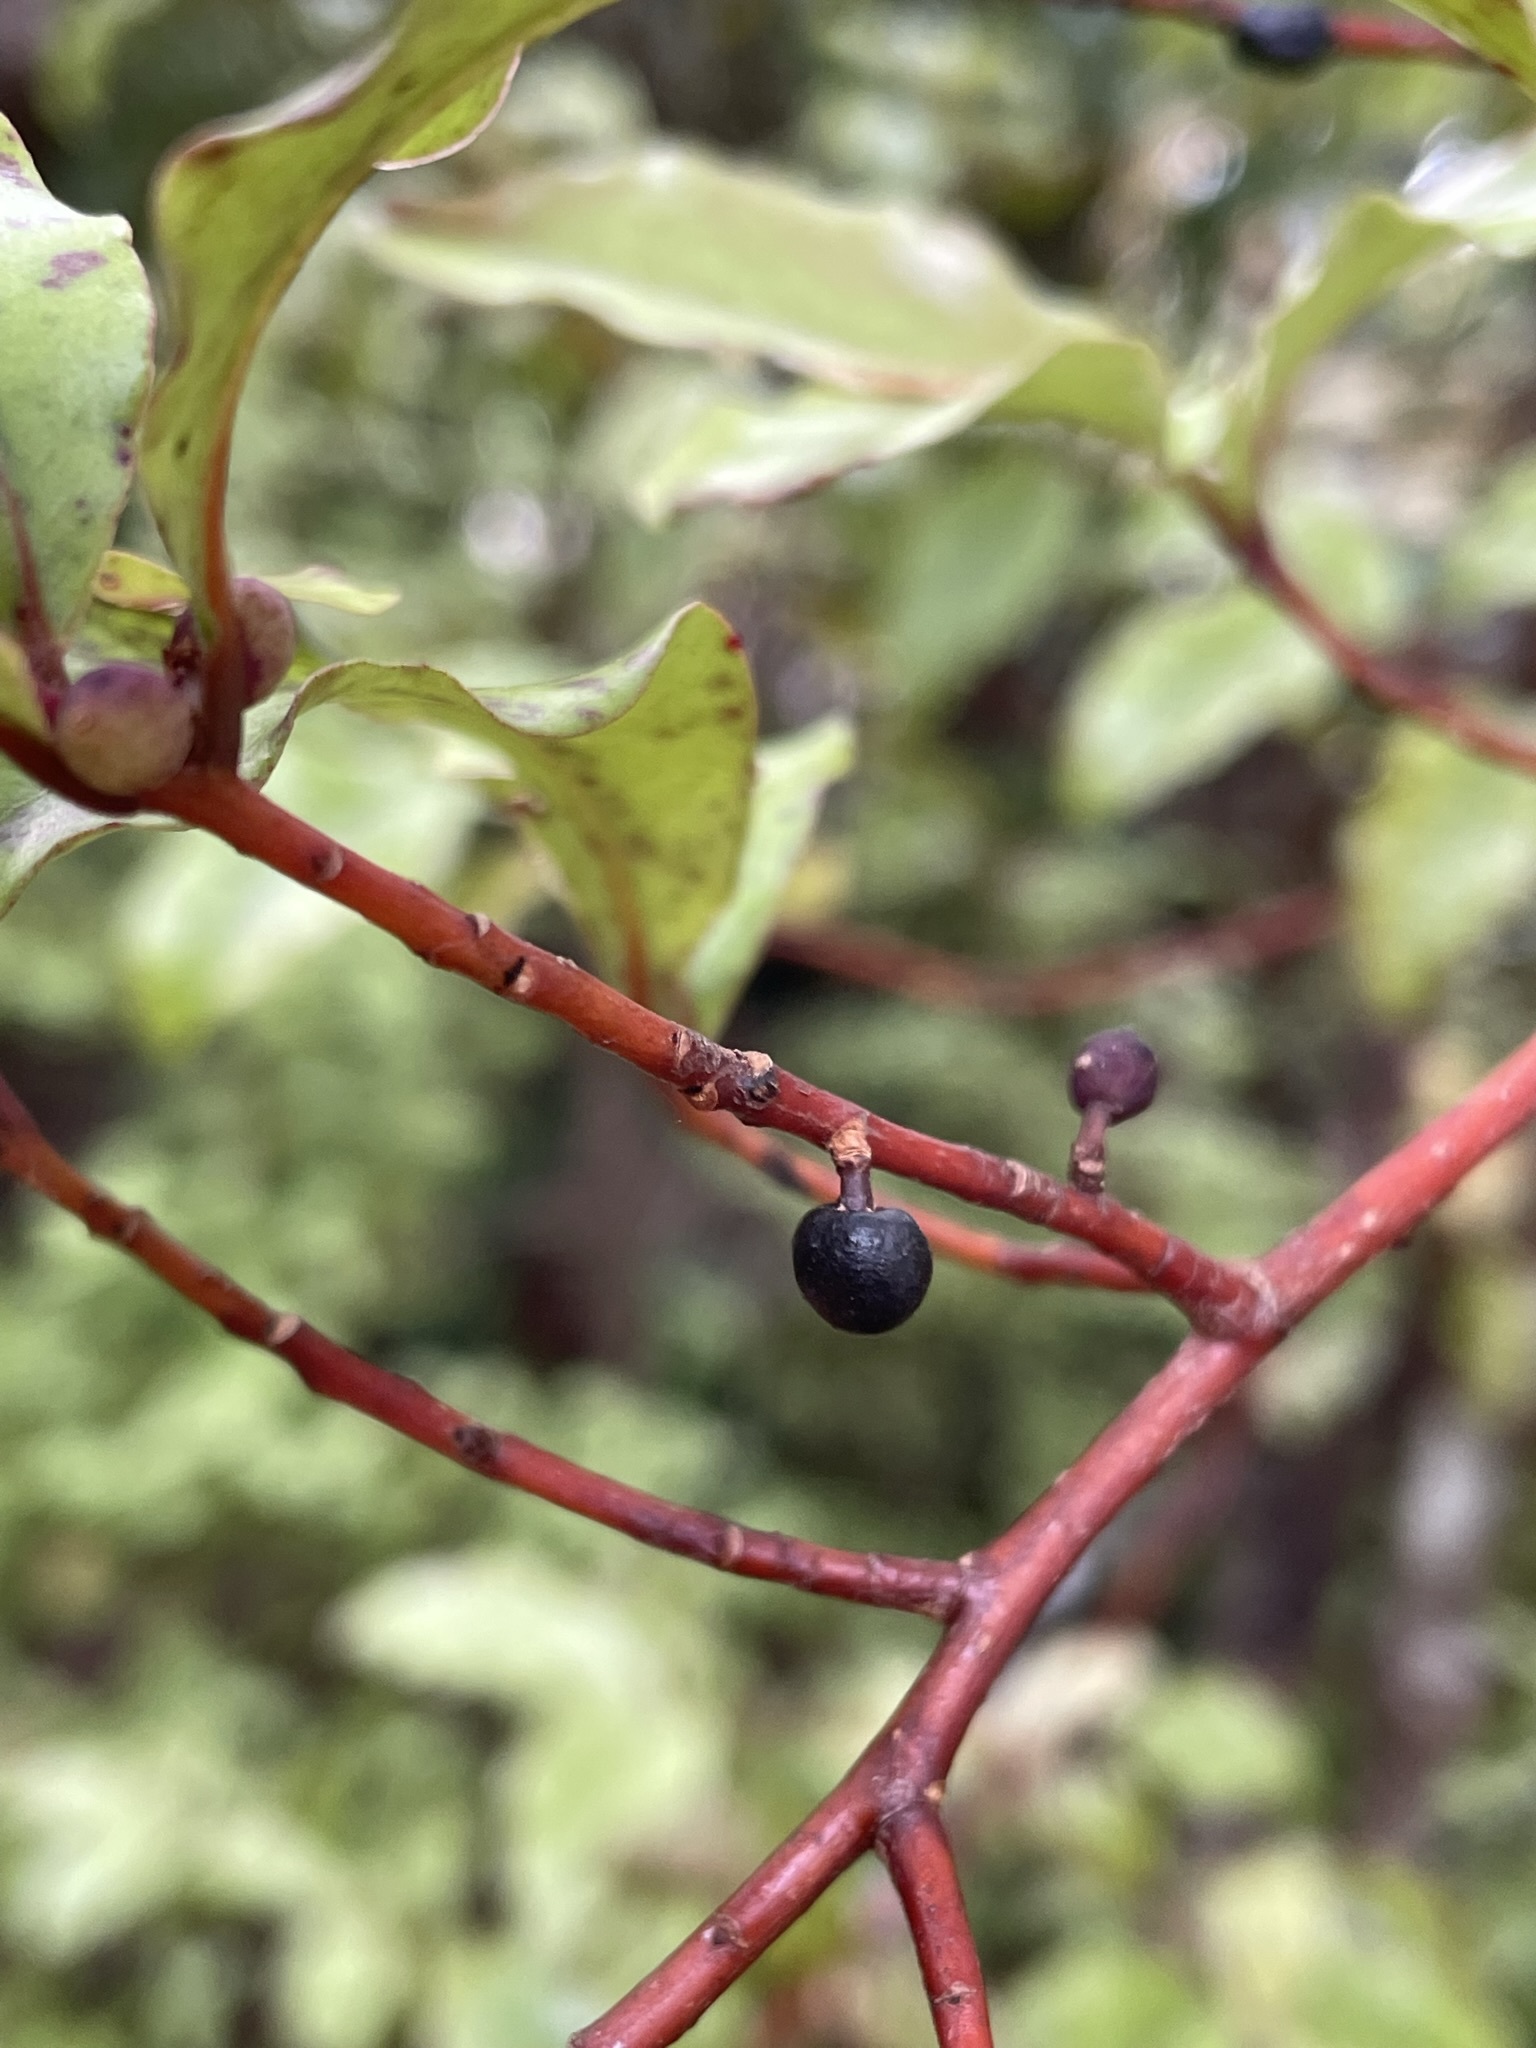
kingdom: Plantae
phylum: Tracheophyta
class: Magnoliopsida
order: Ericales
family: Primulaceae
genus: Myrsine
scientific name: Myrsine australis
